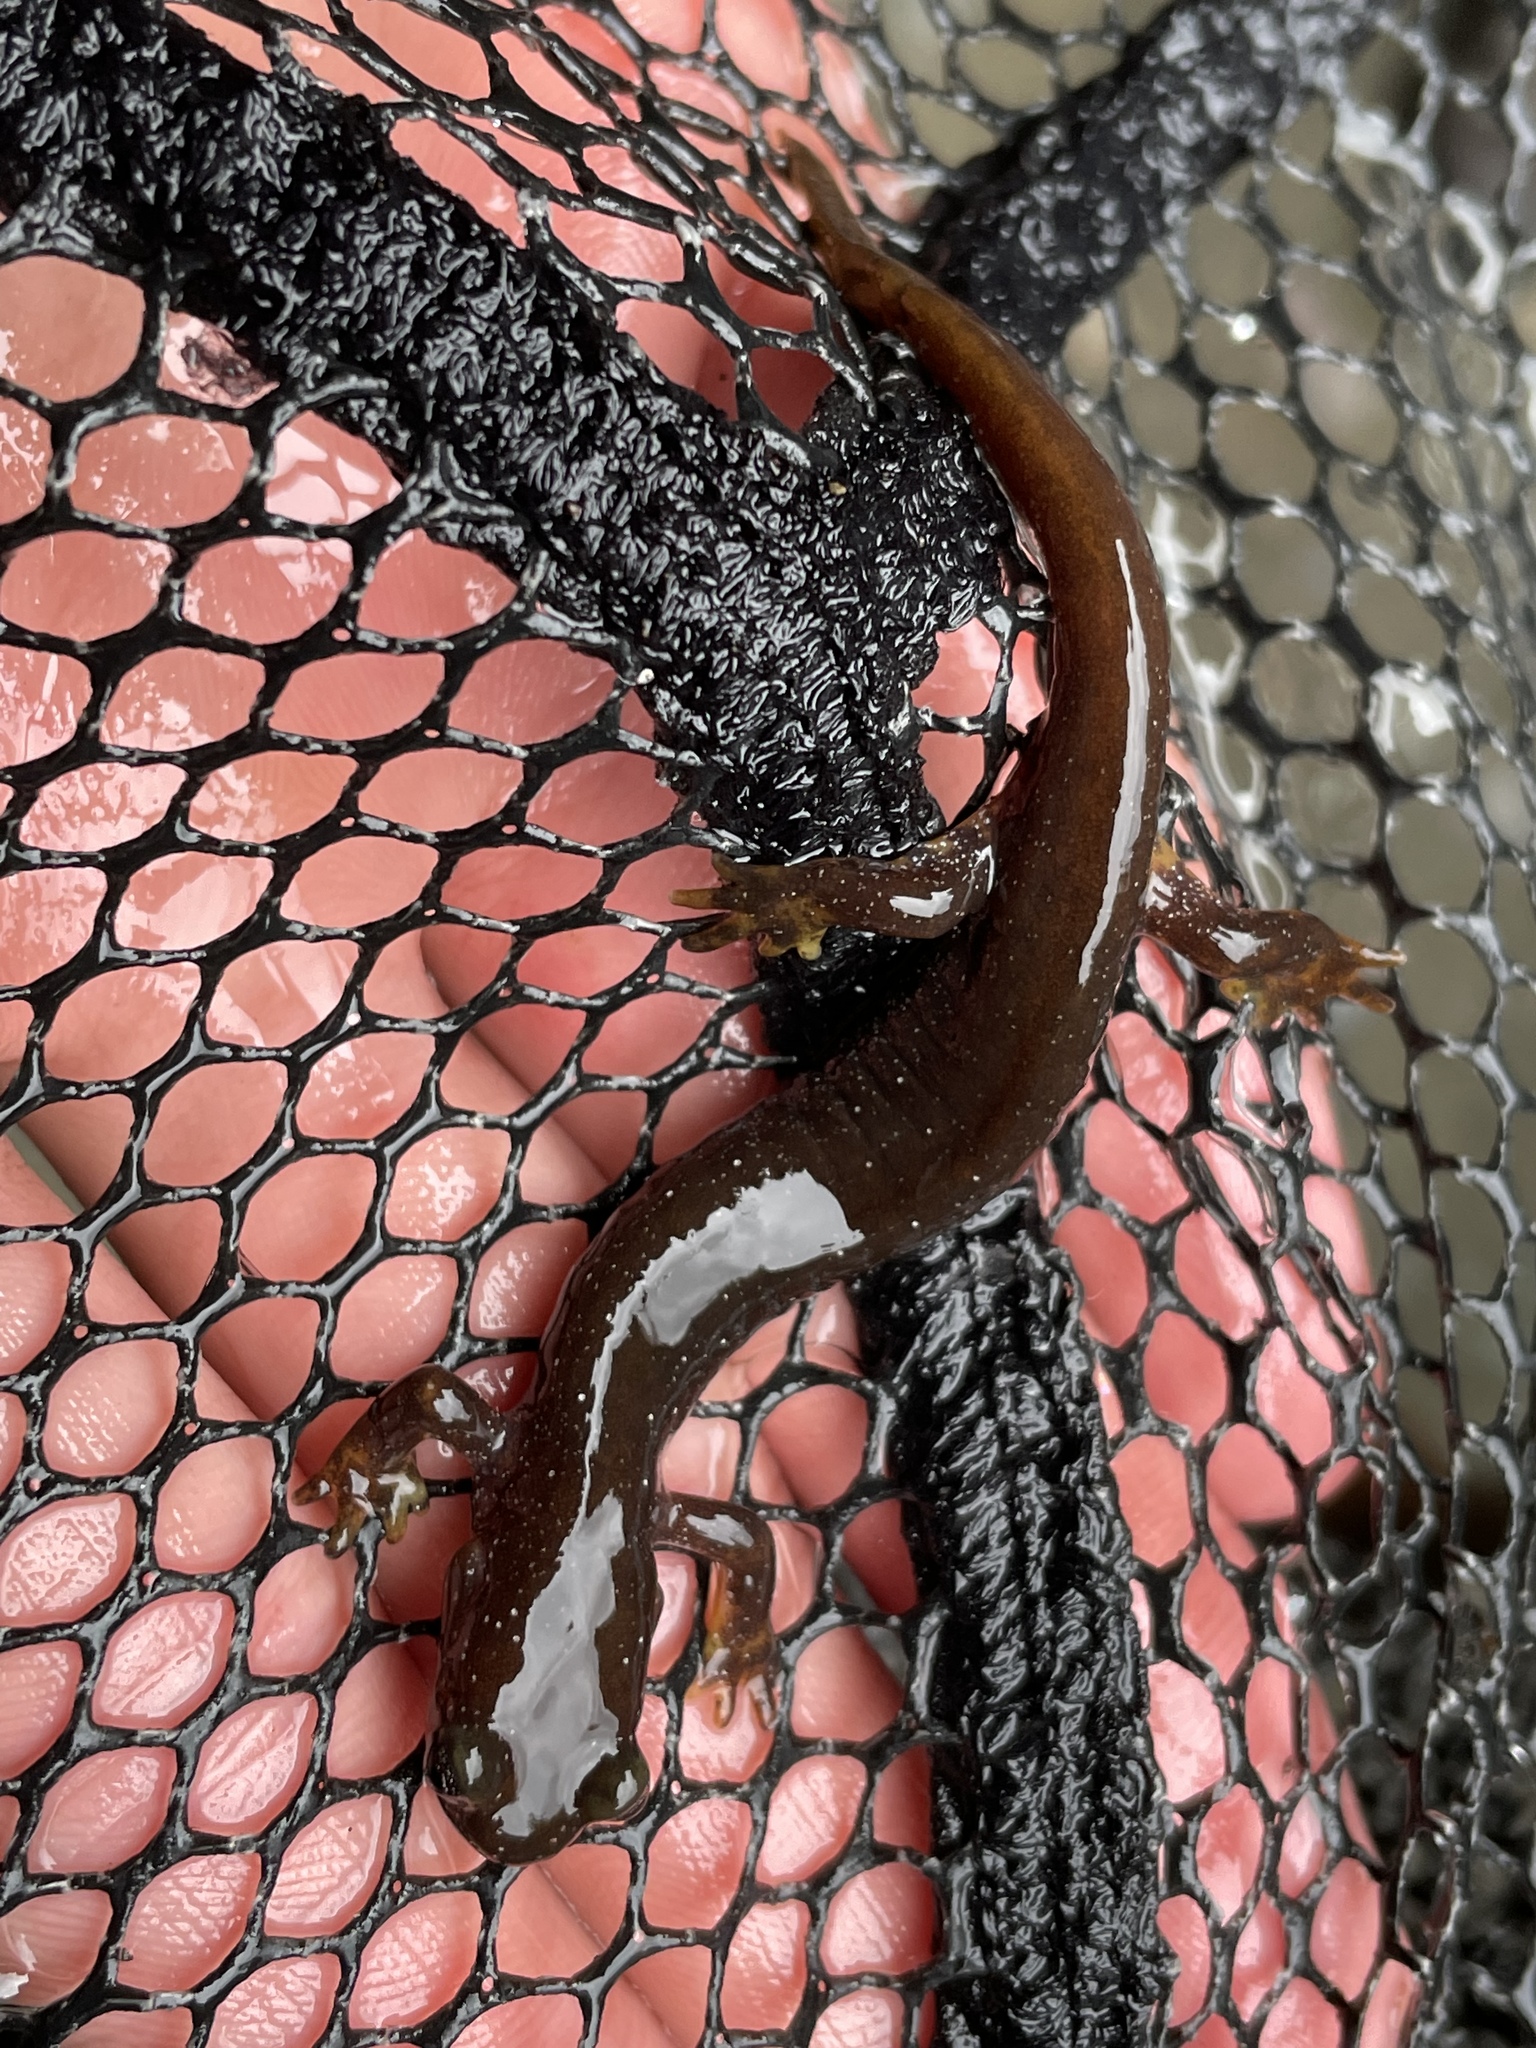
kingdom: Animalia
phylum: Chordata
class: Amphibia
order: Caudata
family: Rhyacotritonidae
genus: Rhyacotriton
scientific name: Rhyacotriton olympicus
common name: Olympic torrent salamander
